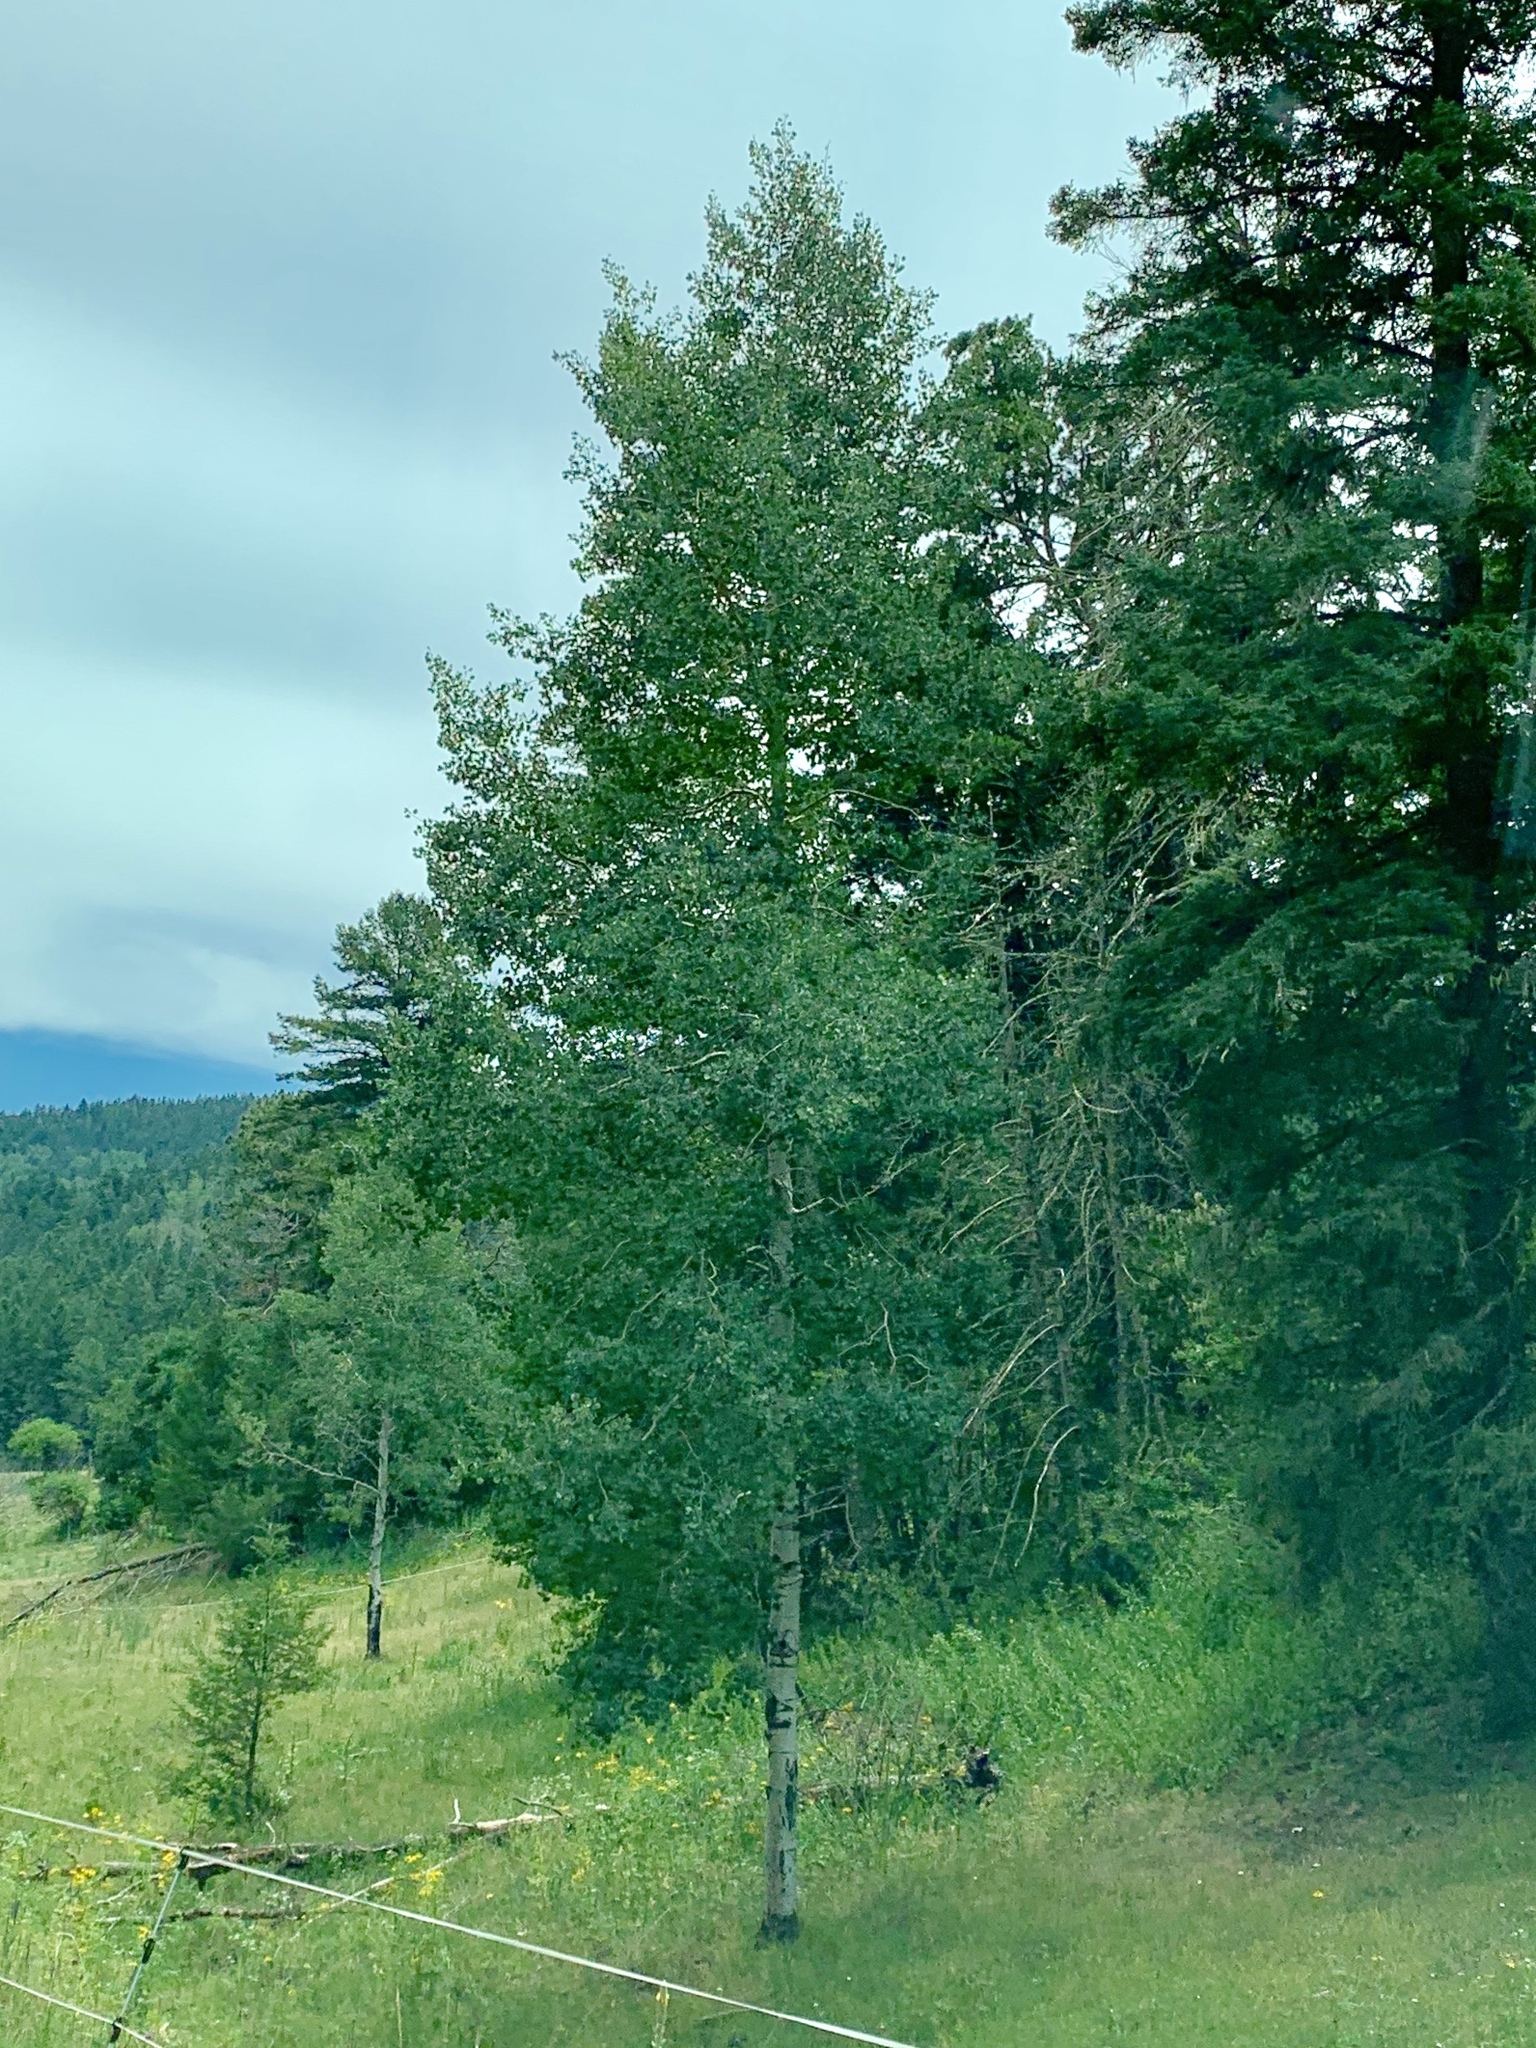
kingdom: Plantae
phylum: Tracheophyta
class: Magnoliopsida
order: Malpighiales
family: Salicaceae
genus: Populus
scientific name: Populus tremuloides
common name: Quaking aspen
